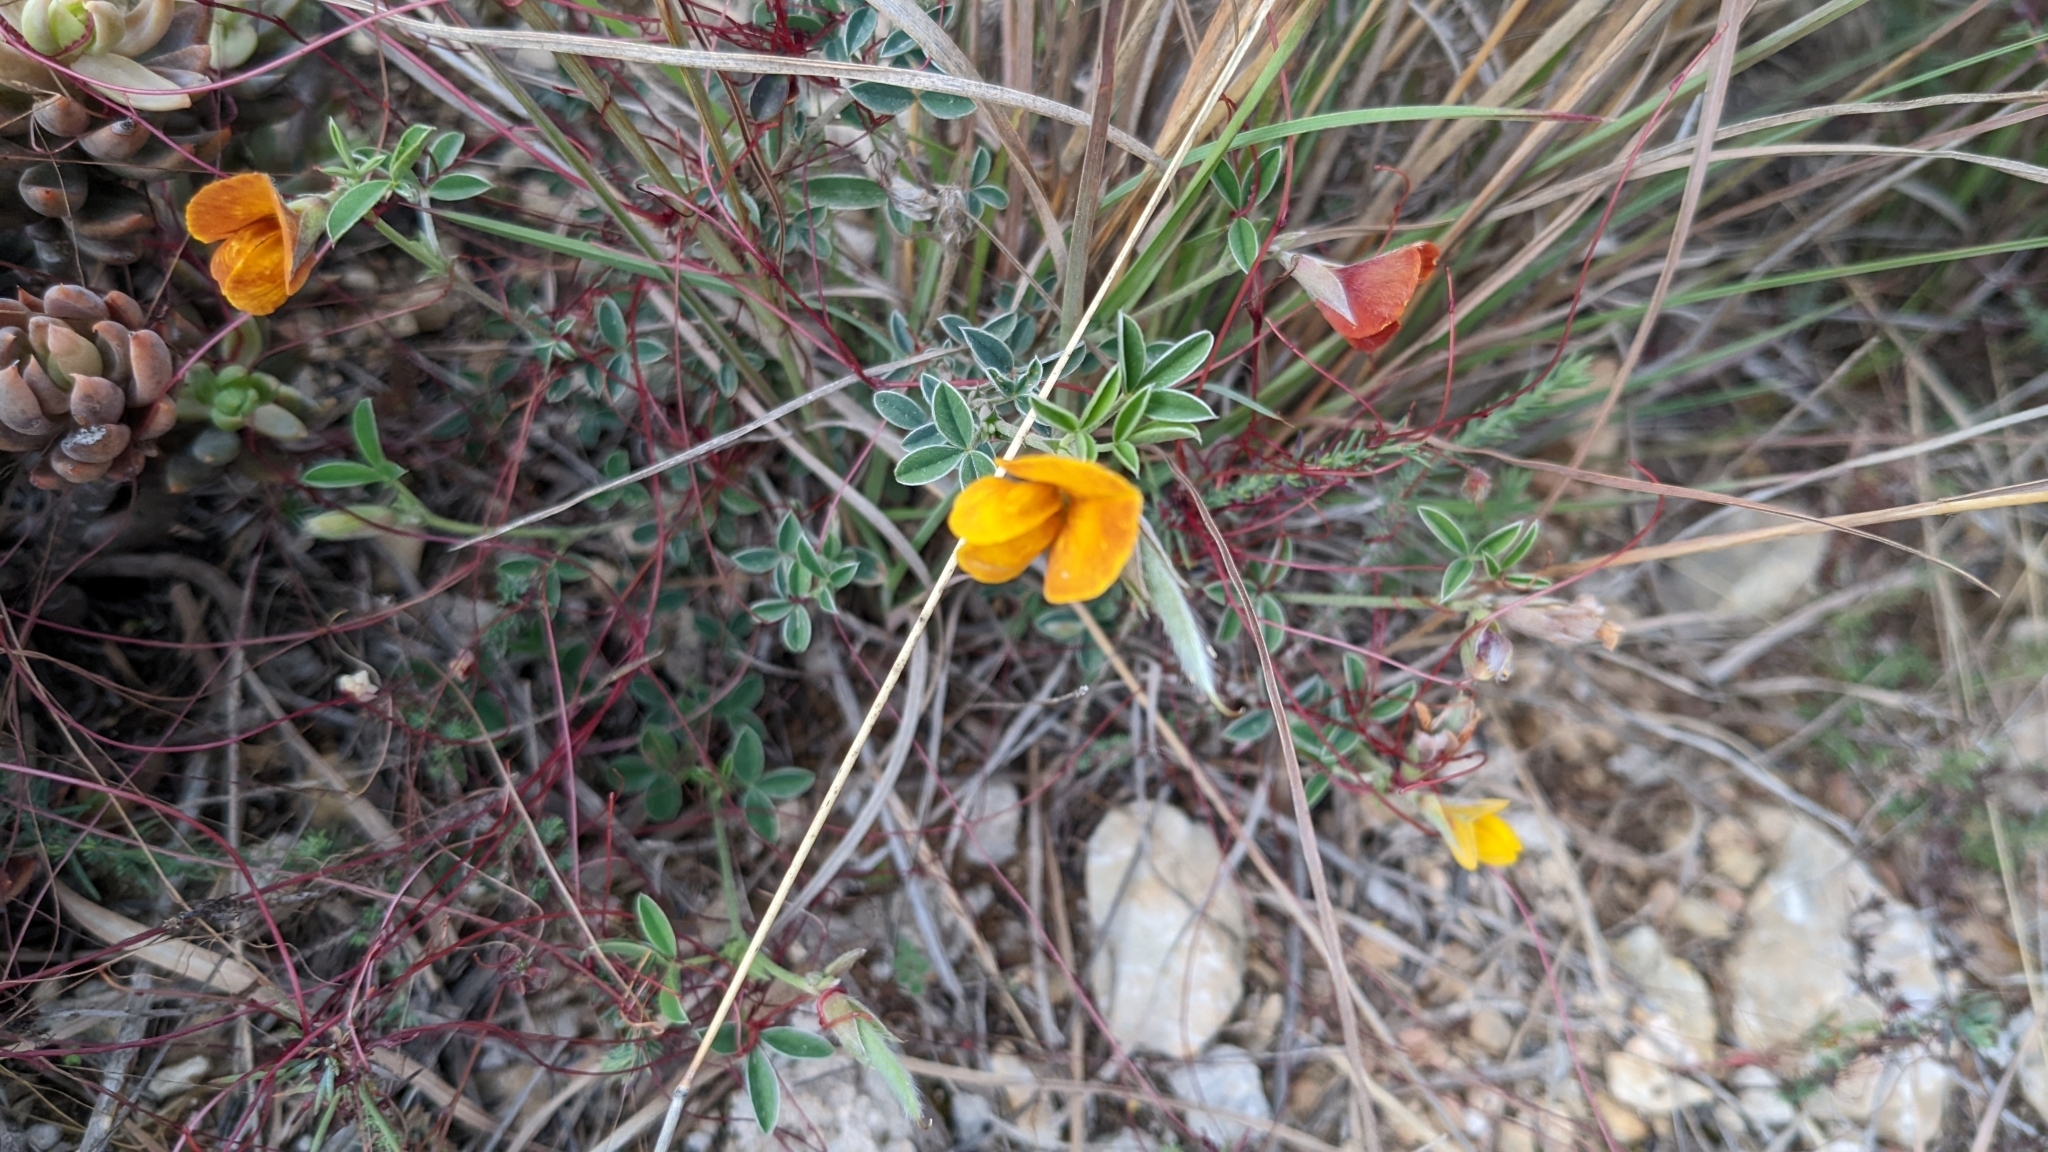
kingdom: Plantae
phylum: Tracheophyta
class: Magnoliopsida
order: Fabales
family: Fabaceae
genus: Argyrolobium
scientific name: Argyrolobium zanonii
